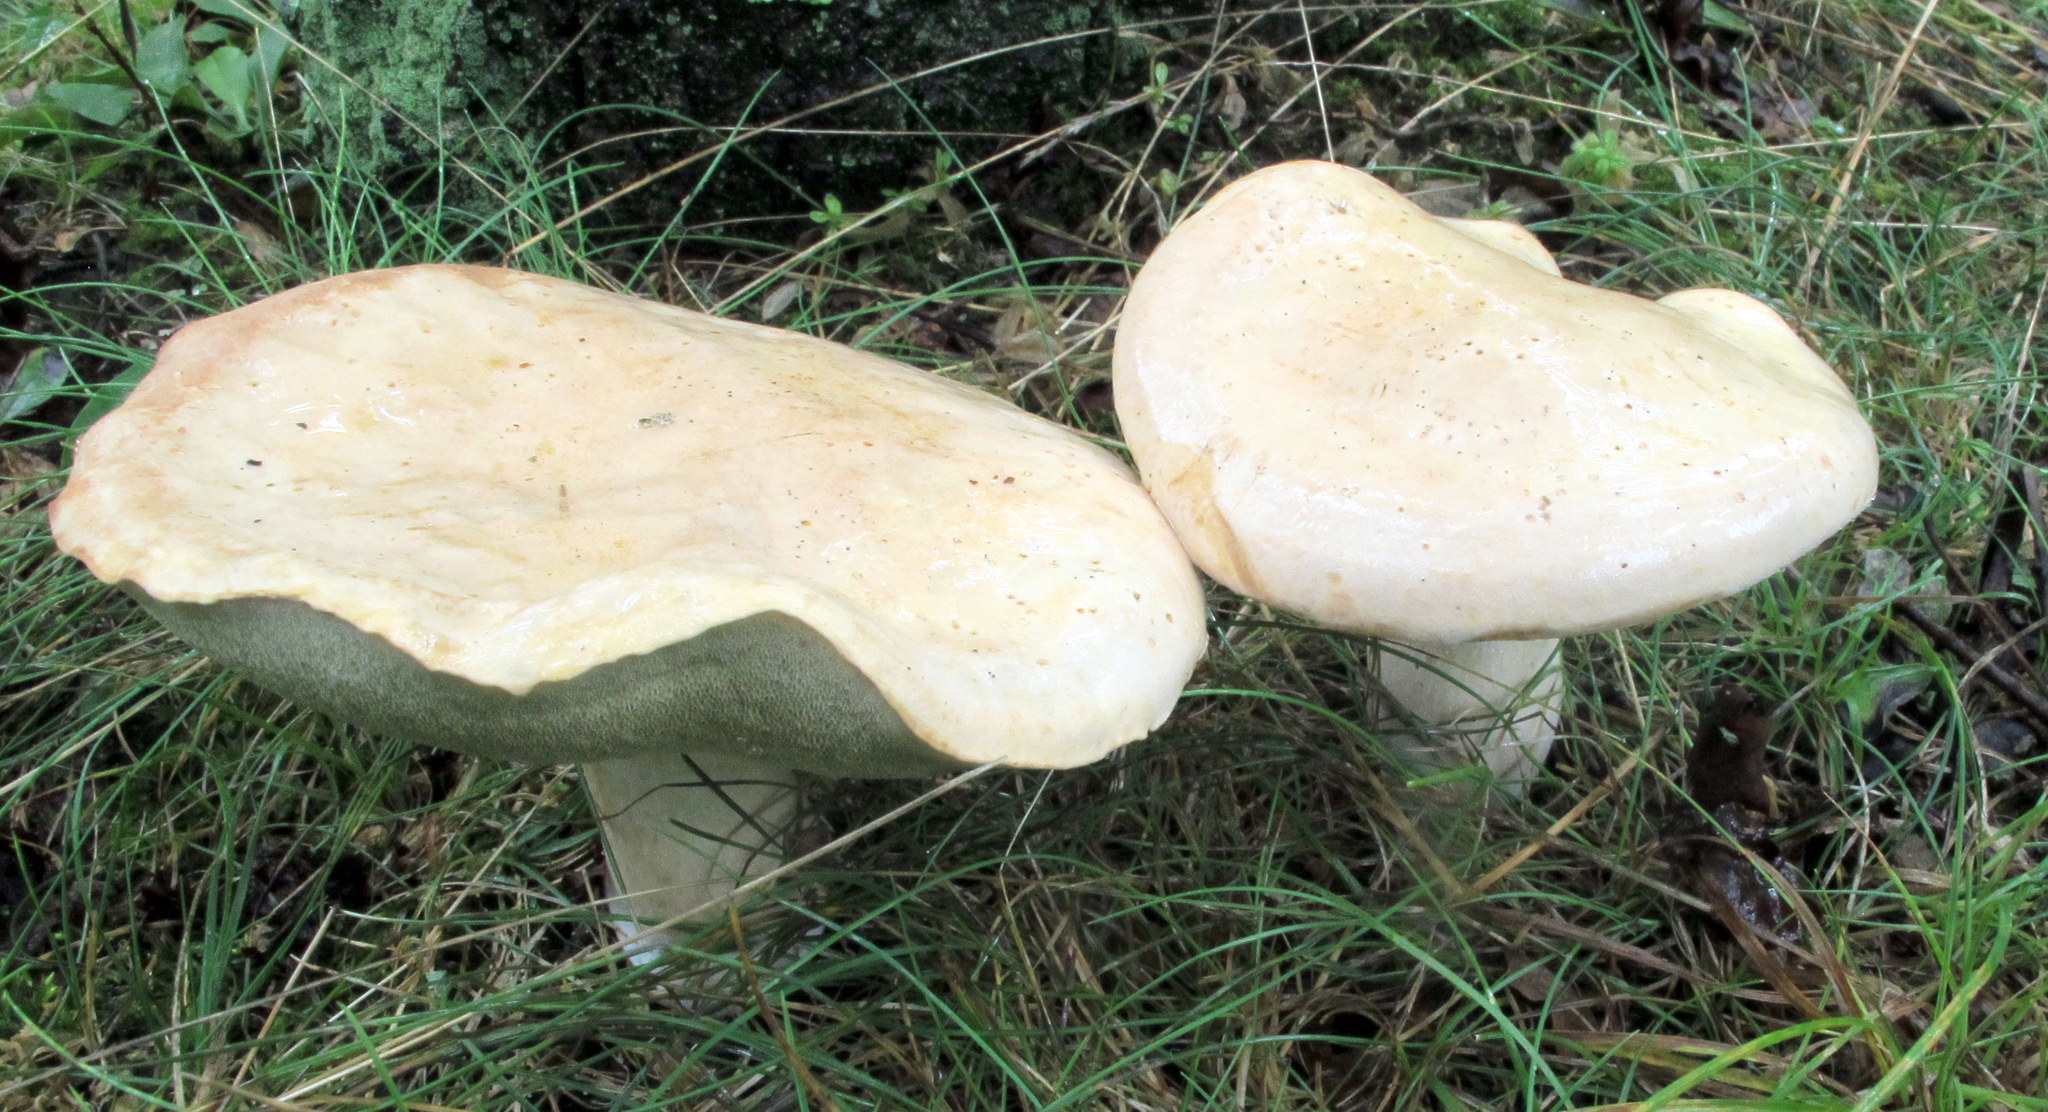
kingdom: Fungi
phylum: Basidiomycota
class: Agaricomycetes
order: Boletales
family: Boletaceae
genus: Imleria
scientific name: Imleria pallida
